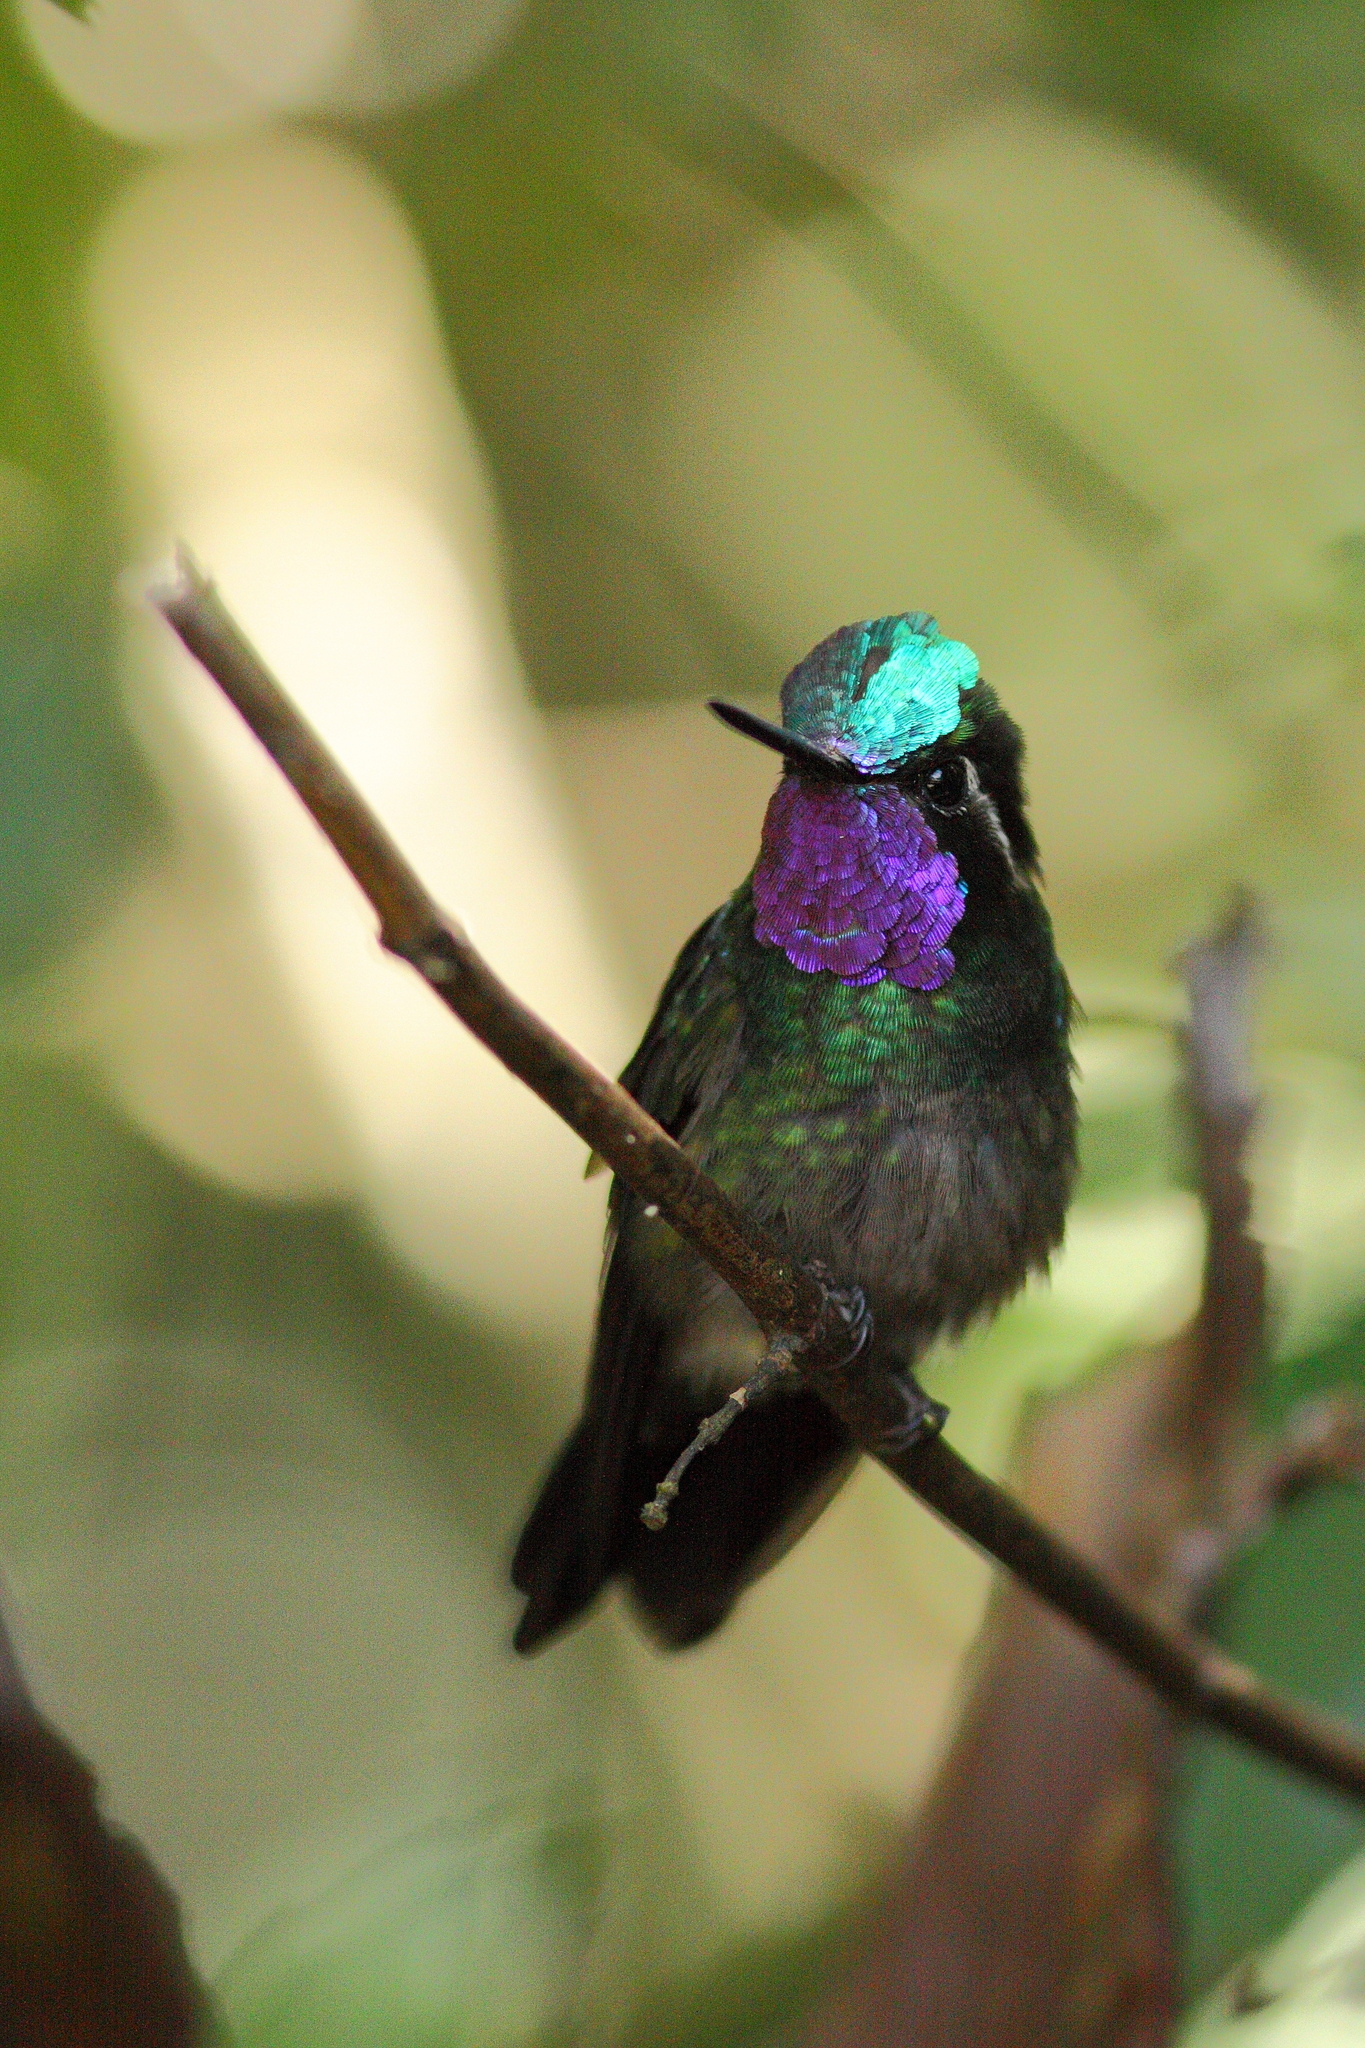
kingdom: Animalia
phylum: Chordata
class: Aves
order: Apodiformes
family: Trochilidae
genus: Lampornis
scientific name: Lampornis calolaemus
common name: Purple-throated mountain-gem
